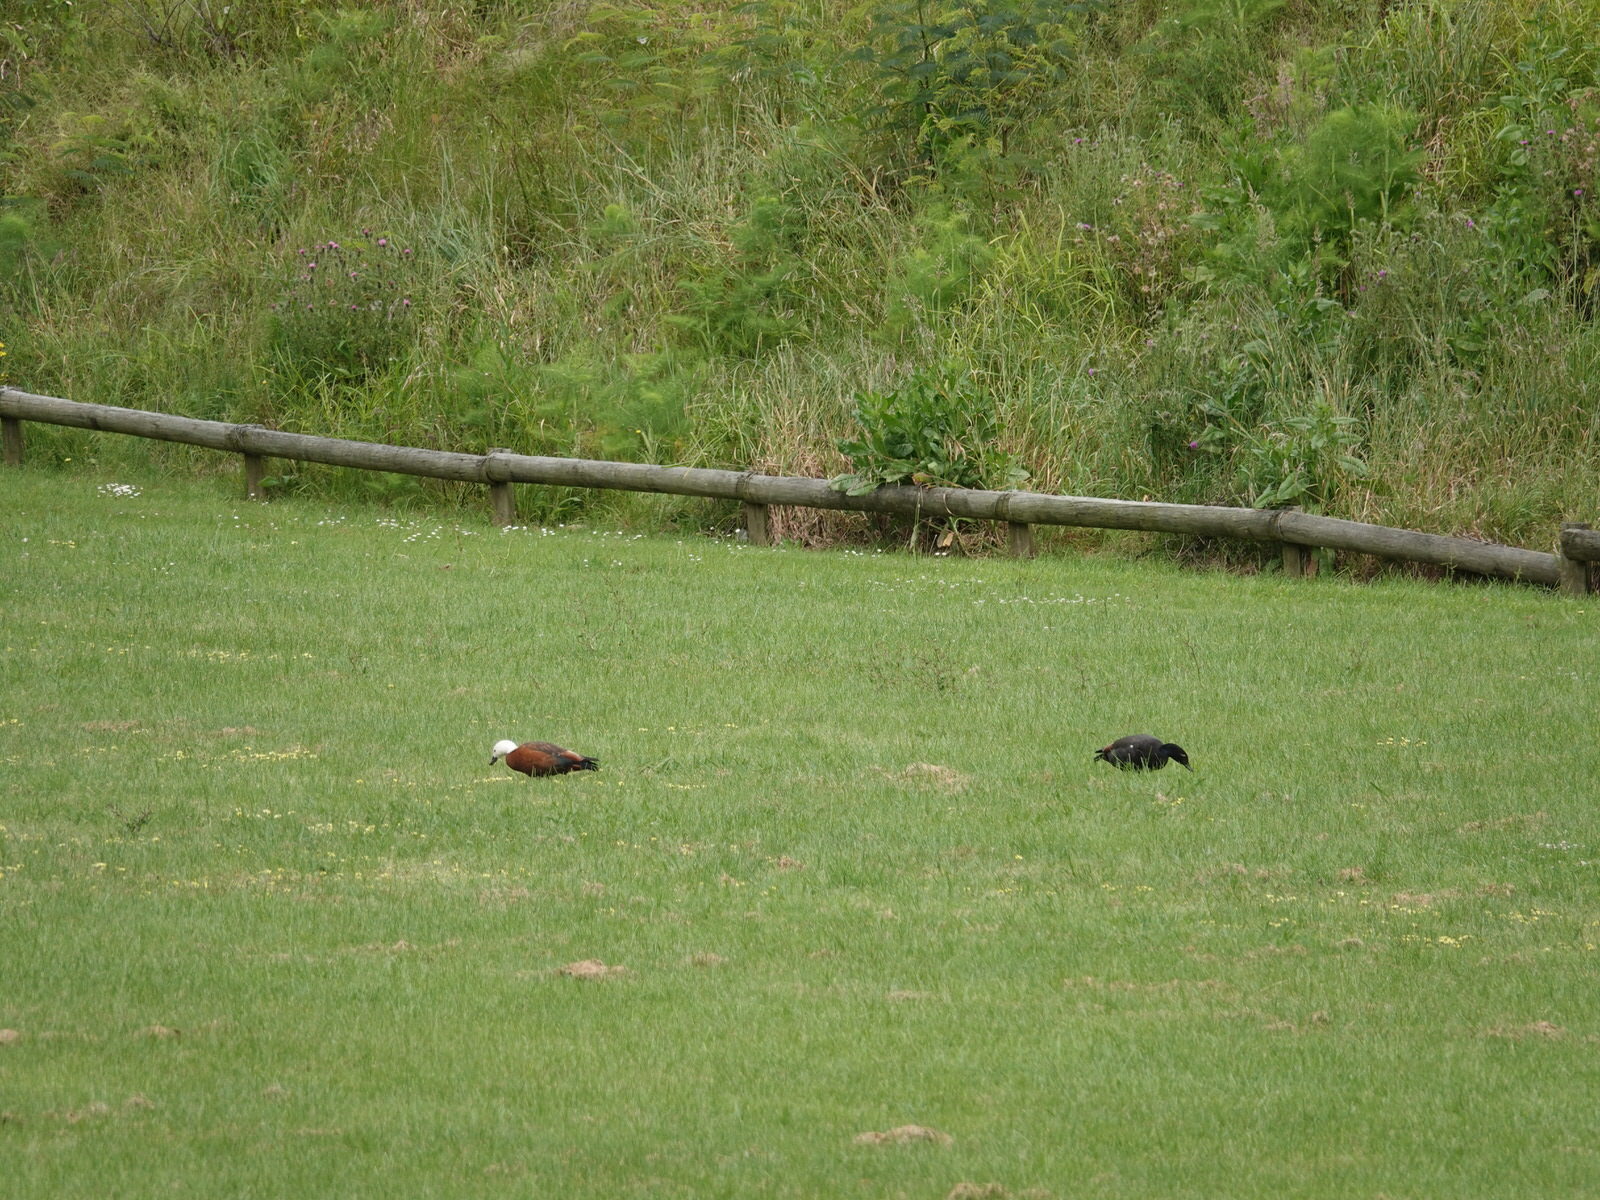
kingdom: Animalia
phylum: Chordata
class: Aves
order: Anseriformes
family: Anatidae
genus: Tadorna
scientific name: Tadorna variegata
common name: Paradise shelduck
